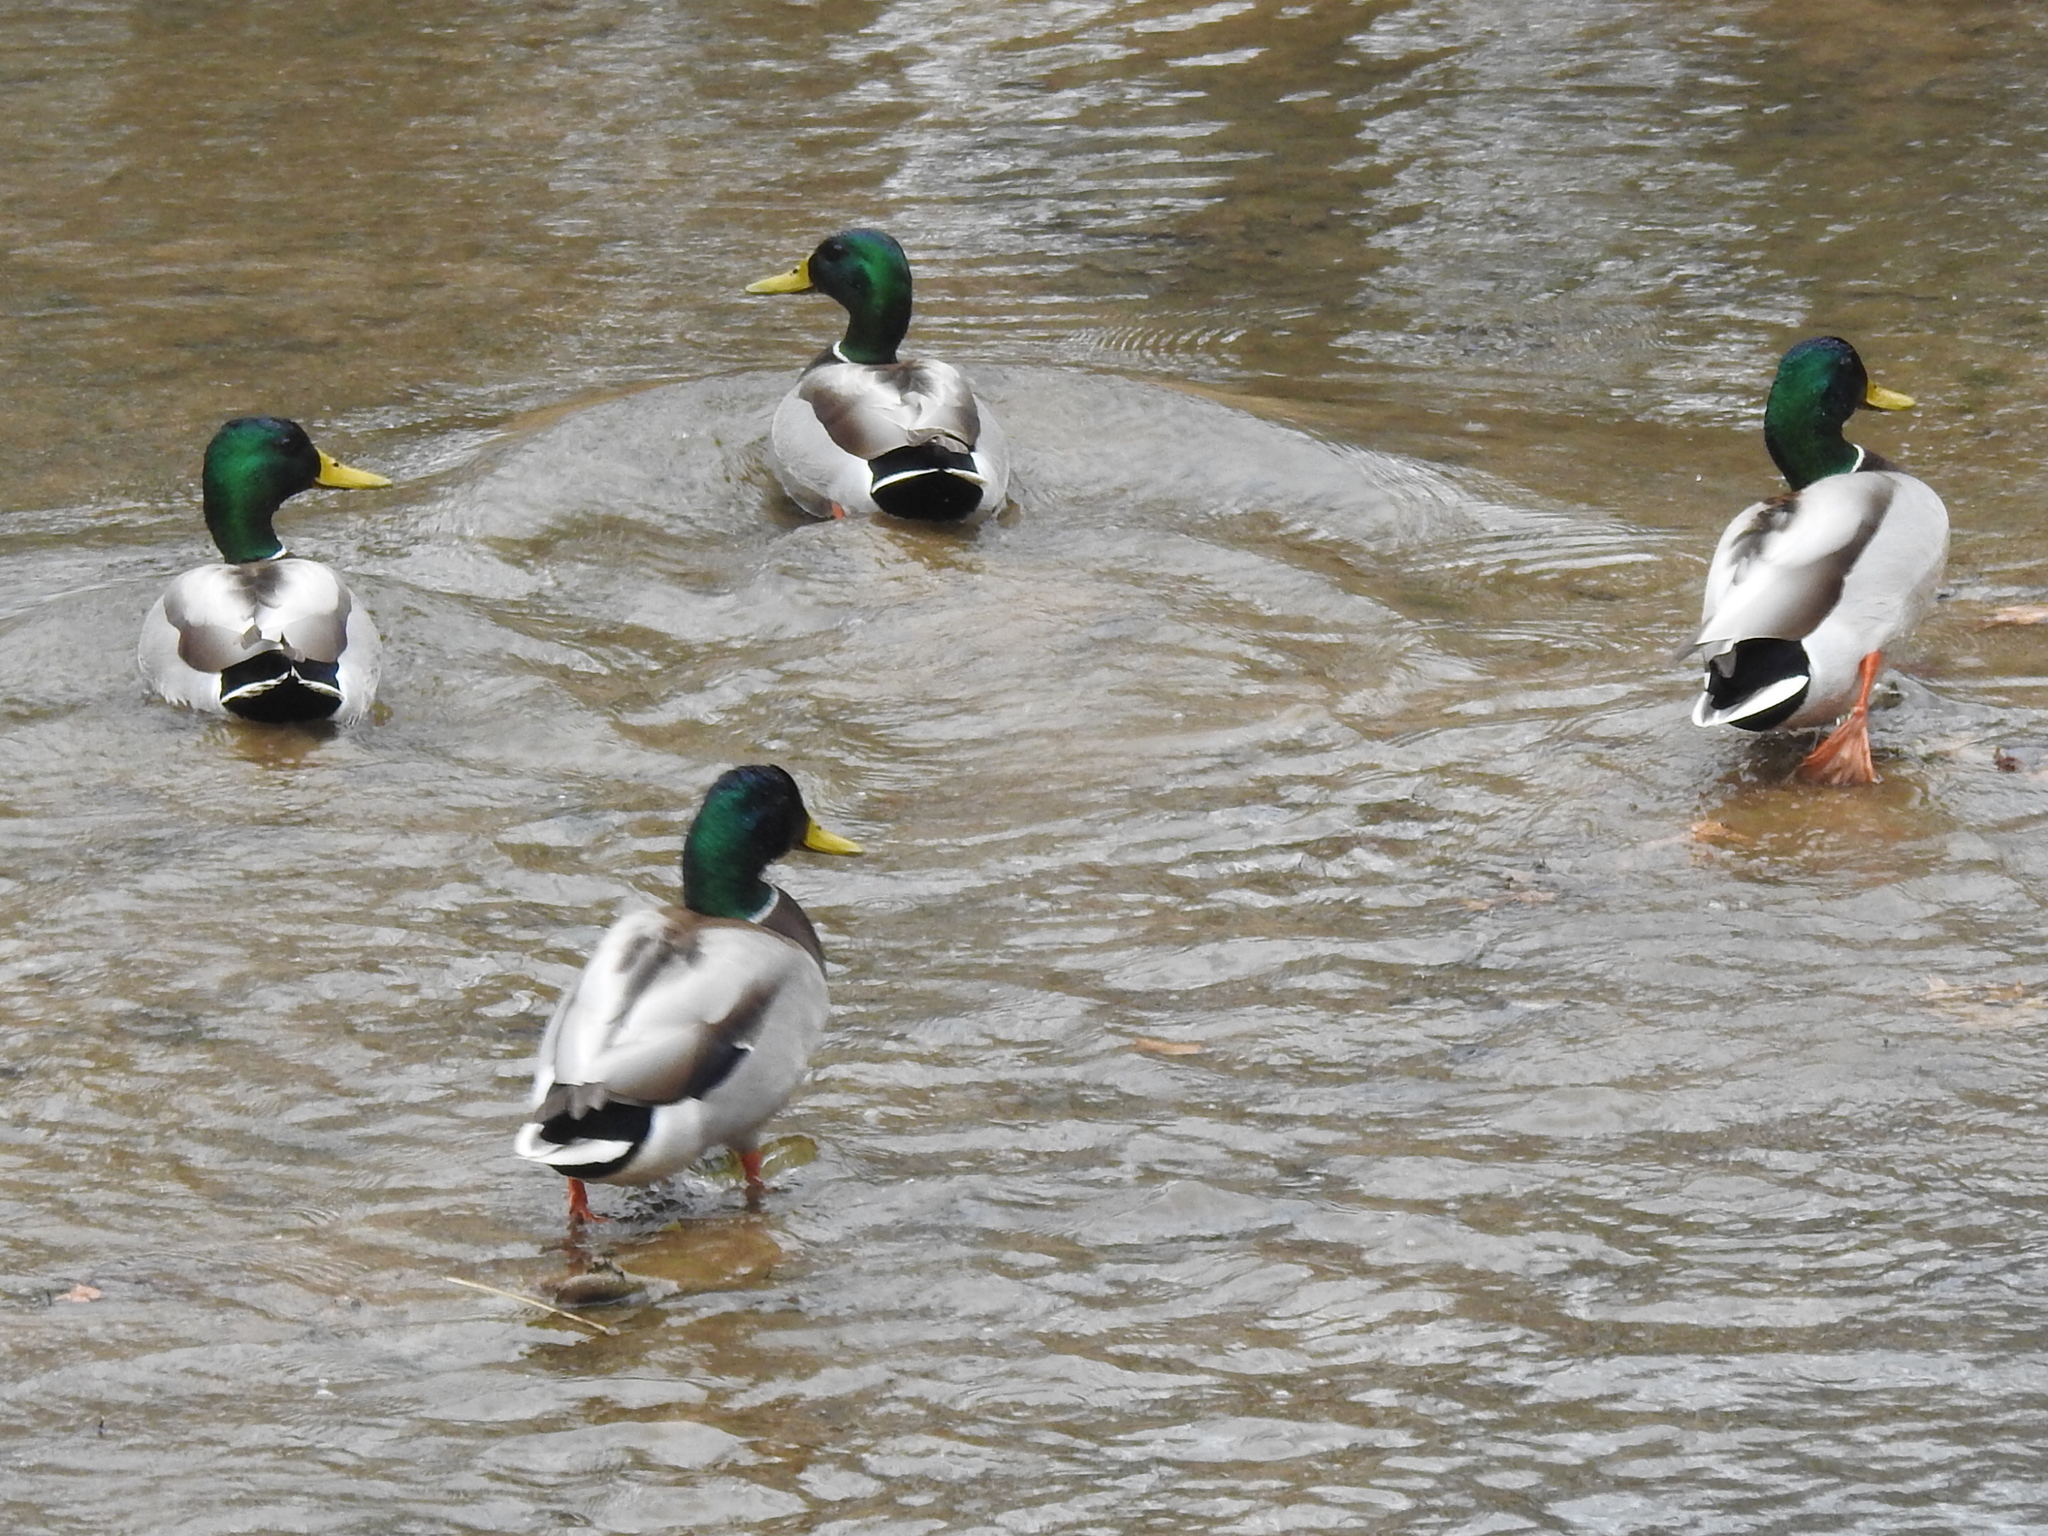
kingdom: Animalia
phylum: Chordata
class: Aves
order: Anseriformes
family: Anatidae
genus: Anas
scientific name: Anas platyrhynchos
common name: Mallard
